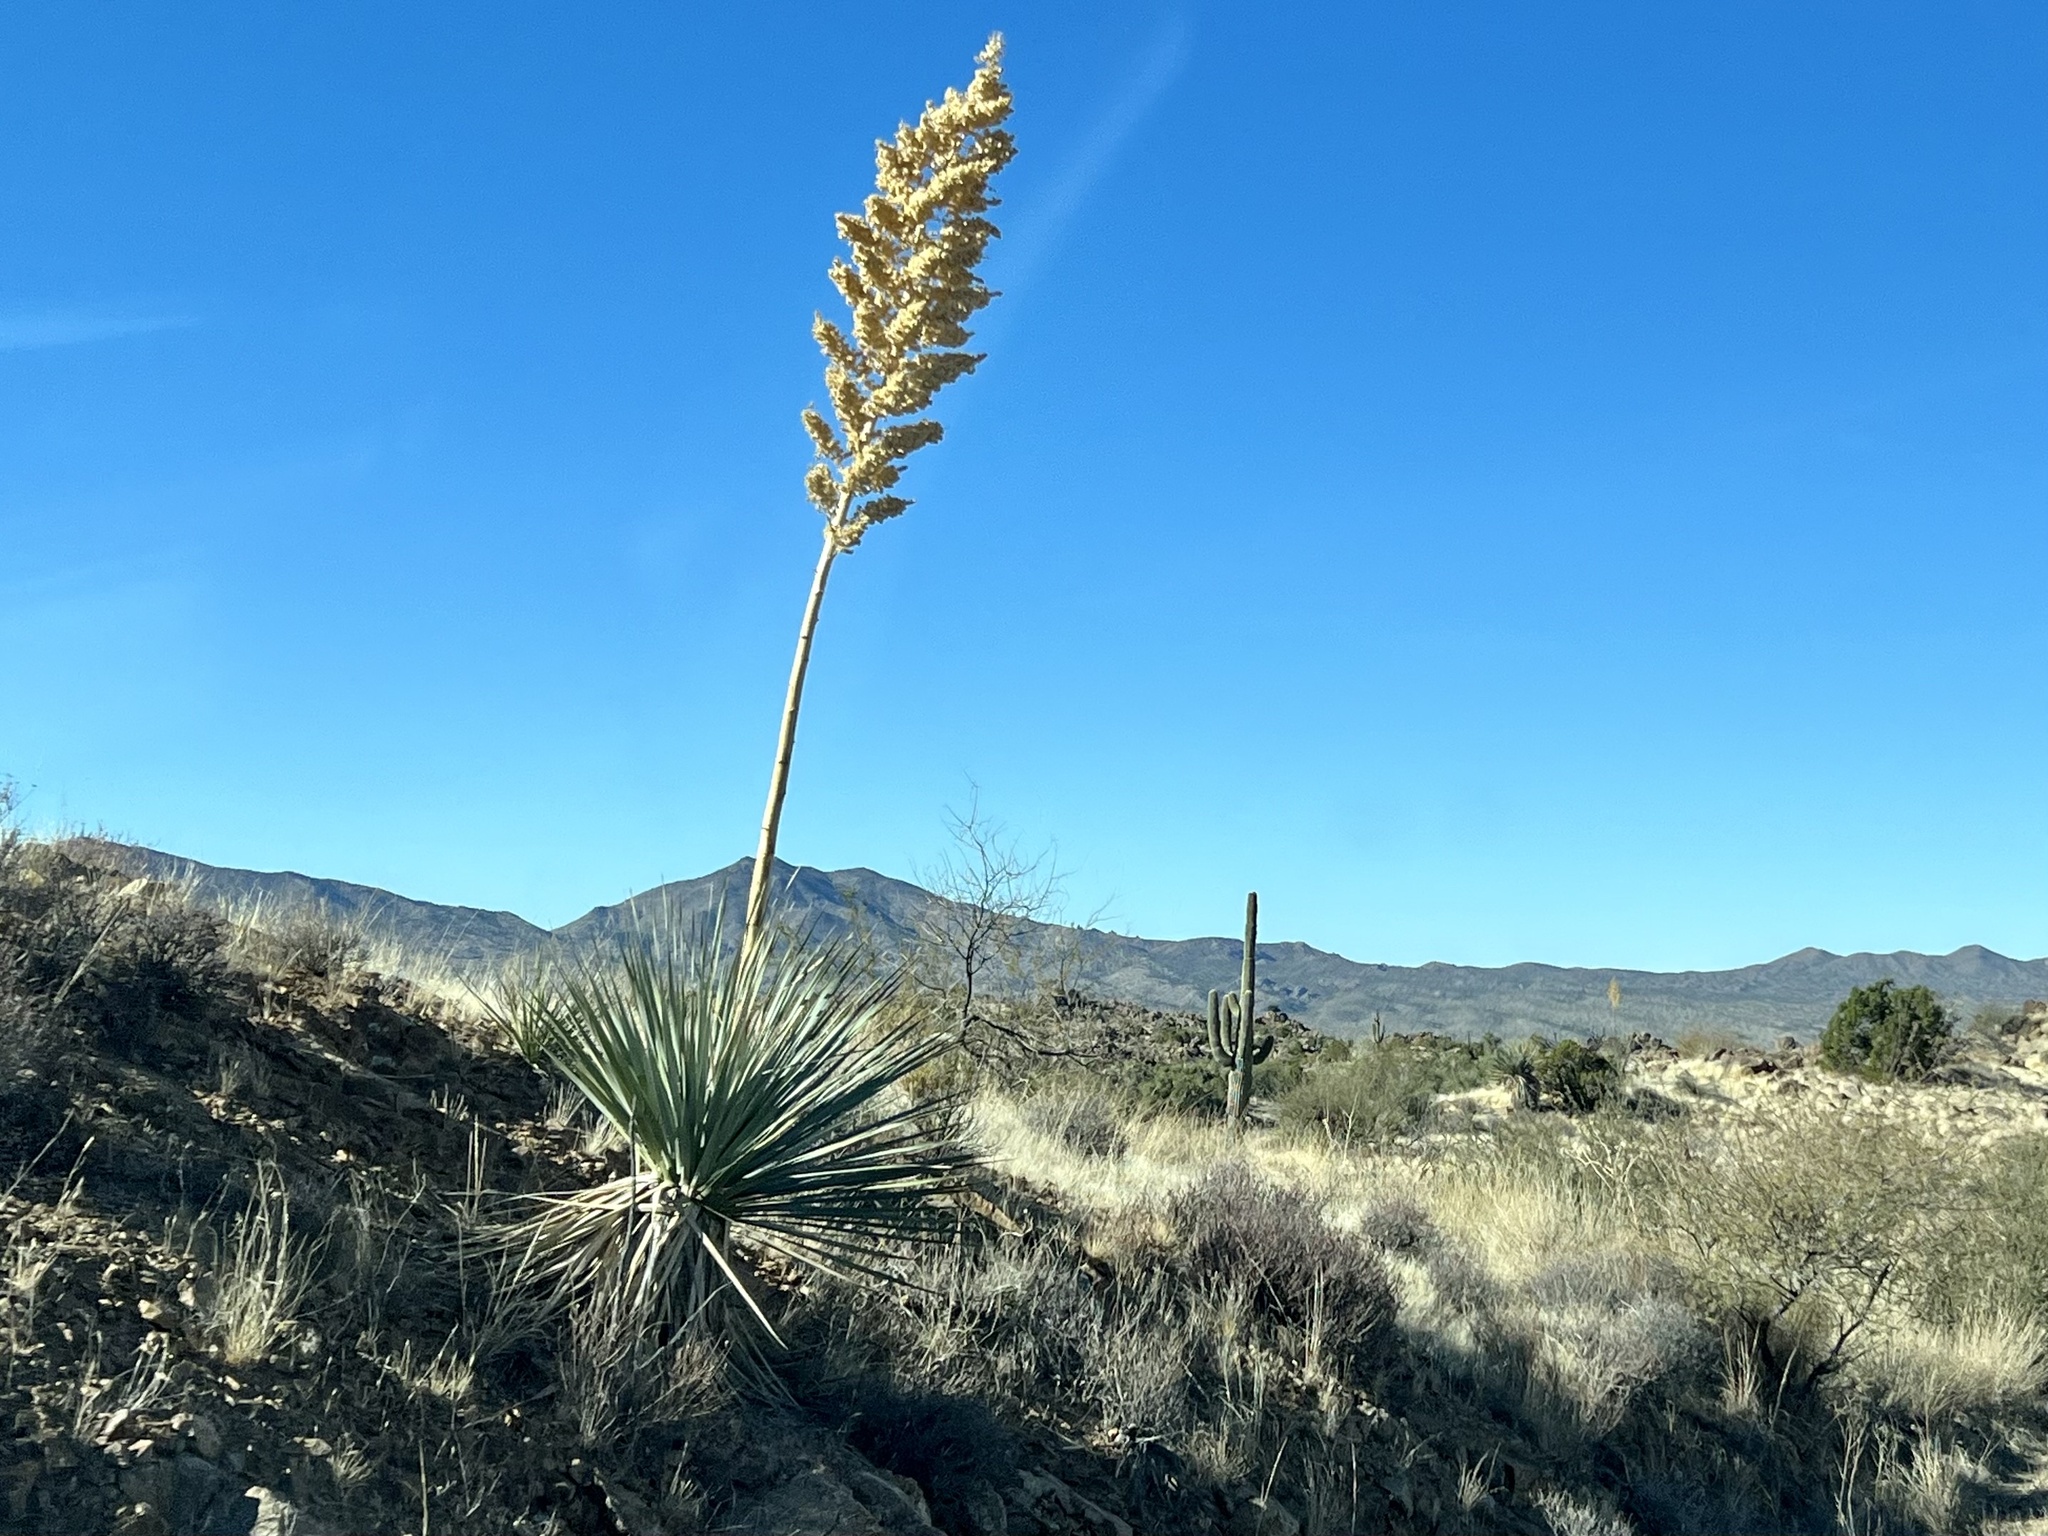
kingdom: Plantae
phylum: Tracheophyta
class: Liliopsida
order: Asparagales
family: Asparagaceae
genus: Nolina
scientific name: Nolina bigelovii
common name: Bigelow bear-grass
